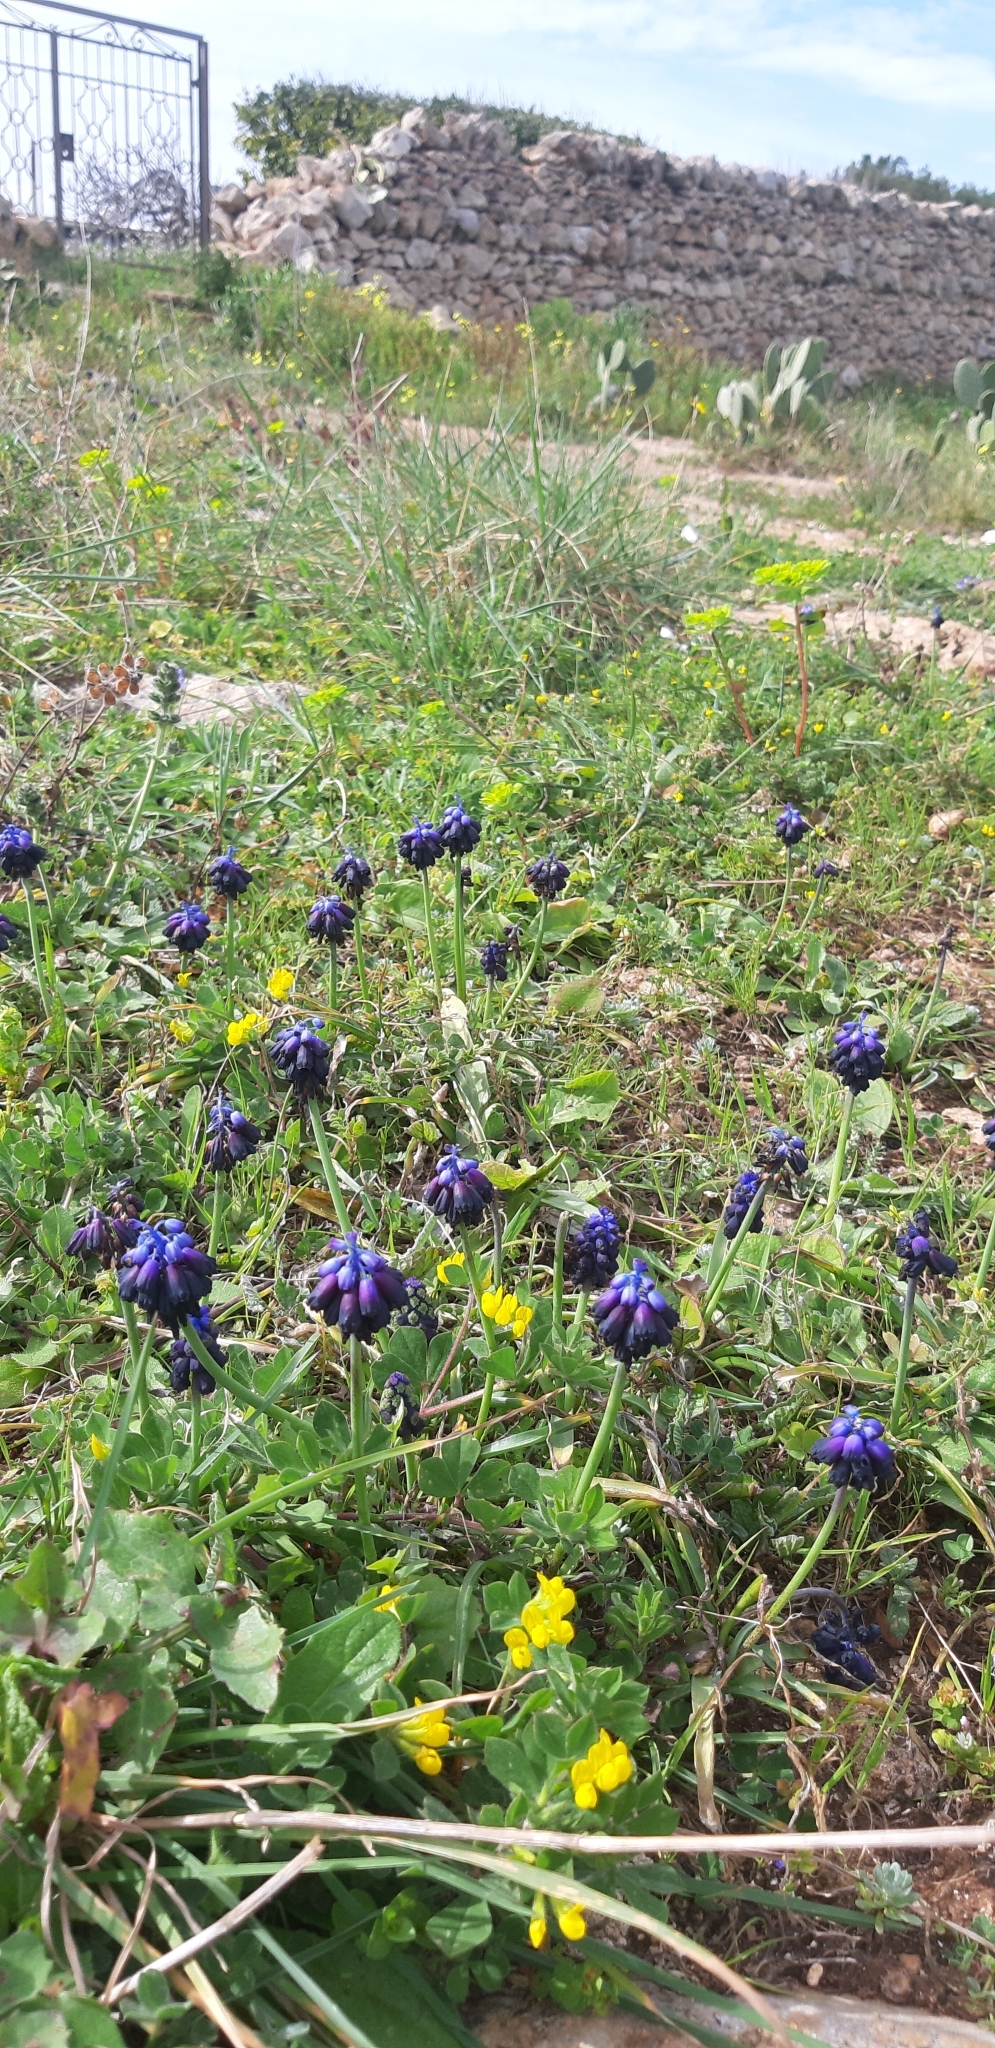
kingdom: Plantae
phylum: Tracheophyta
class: Liliopsida
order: Asparagales
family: Asparagaceae
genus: Muscari
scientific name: Muscari commutatum
